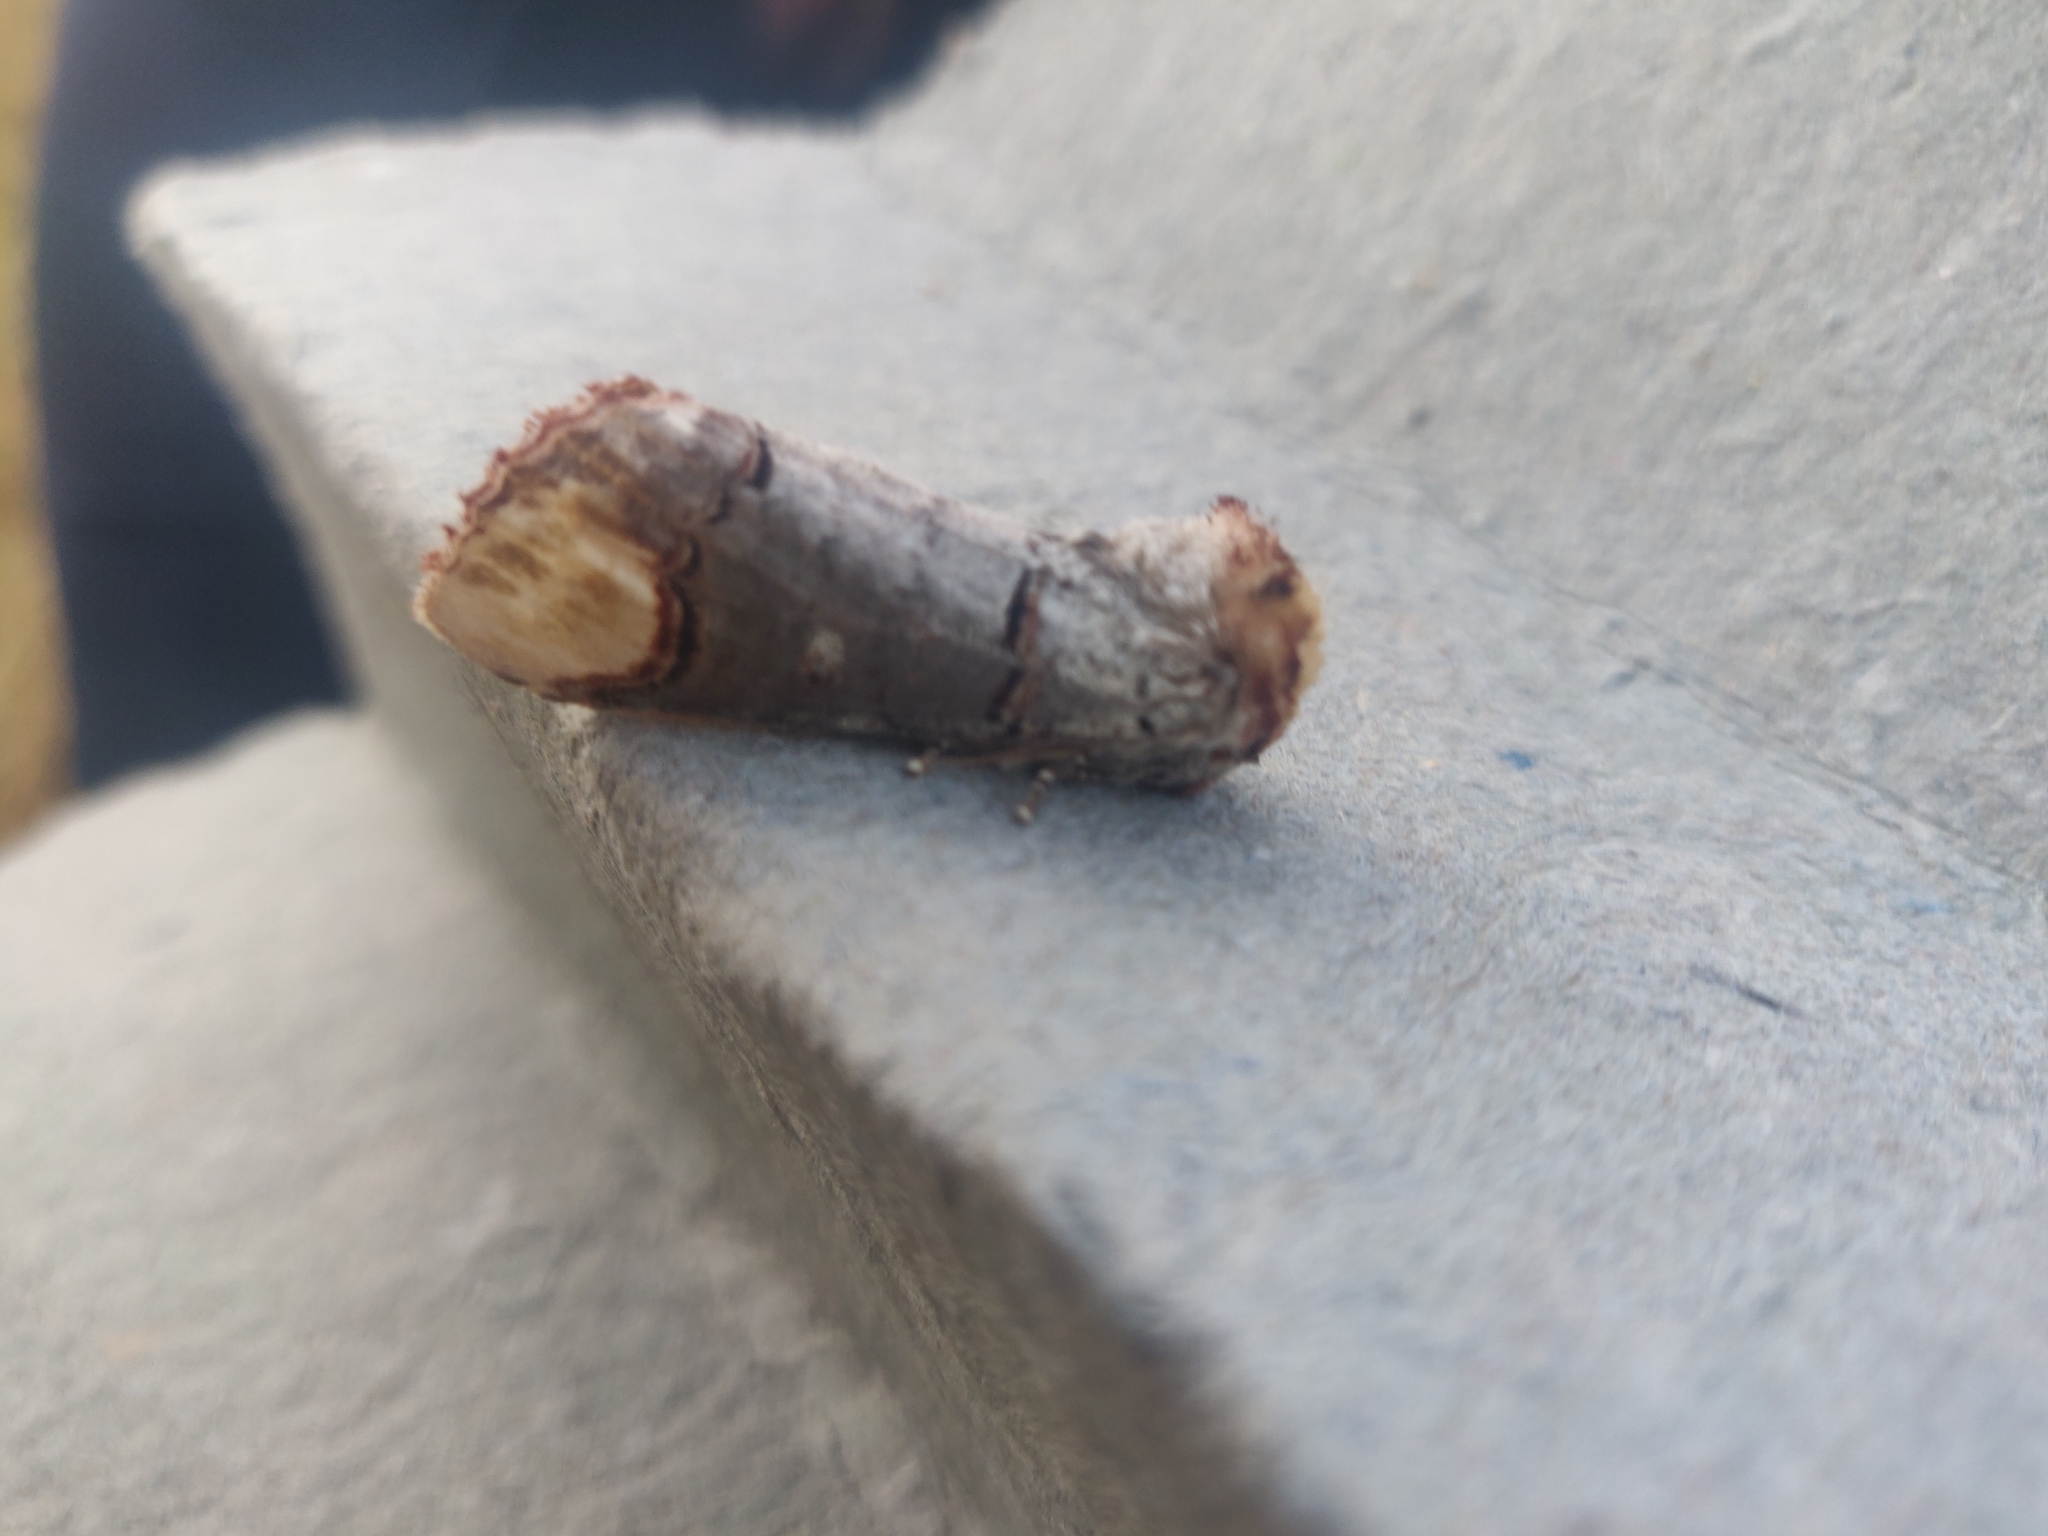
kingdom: Animalia
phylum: Arthropoda
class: Insecta
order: Lepidoptera
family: Notodontidae
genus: Phalera
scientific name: Phalera bucephala
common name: Buff-tip
